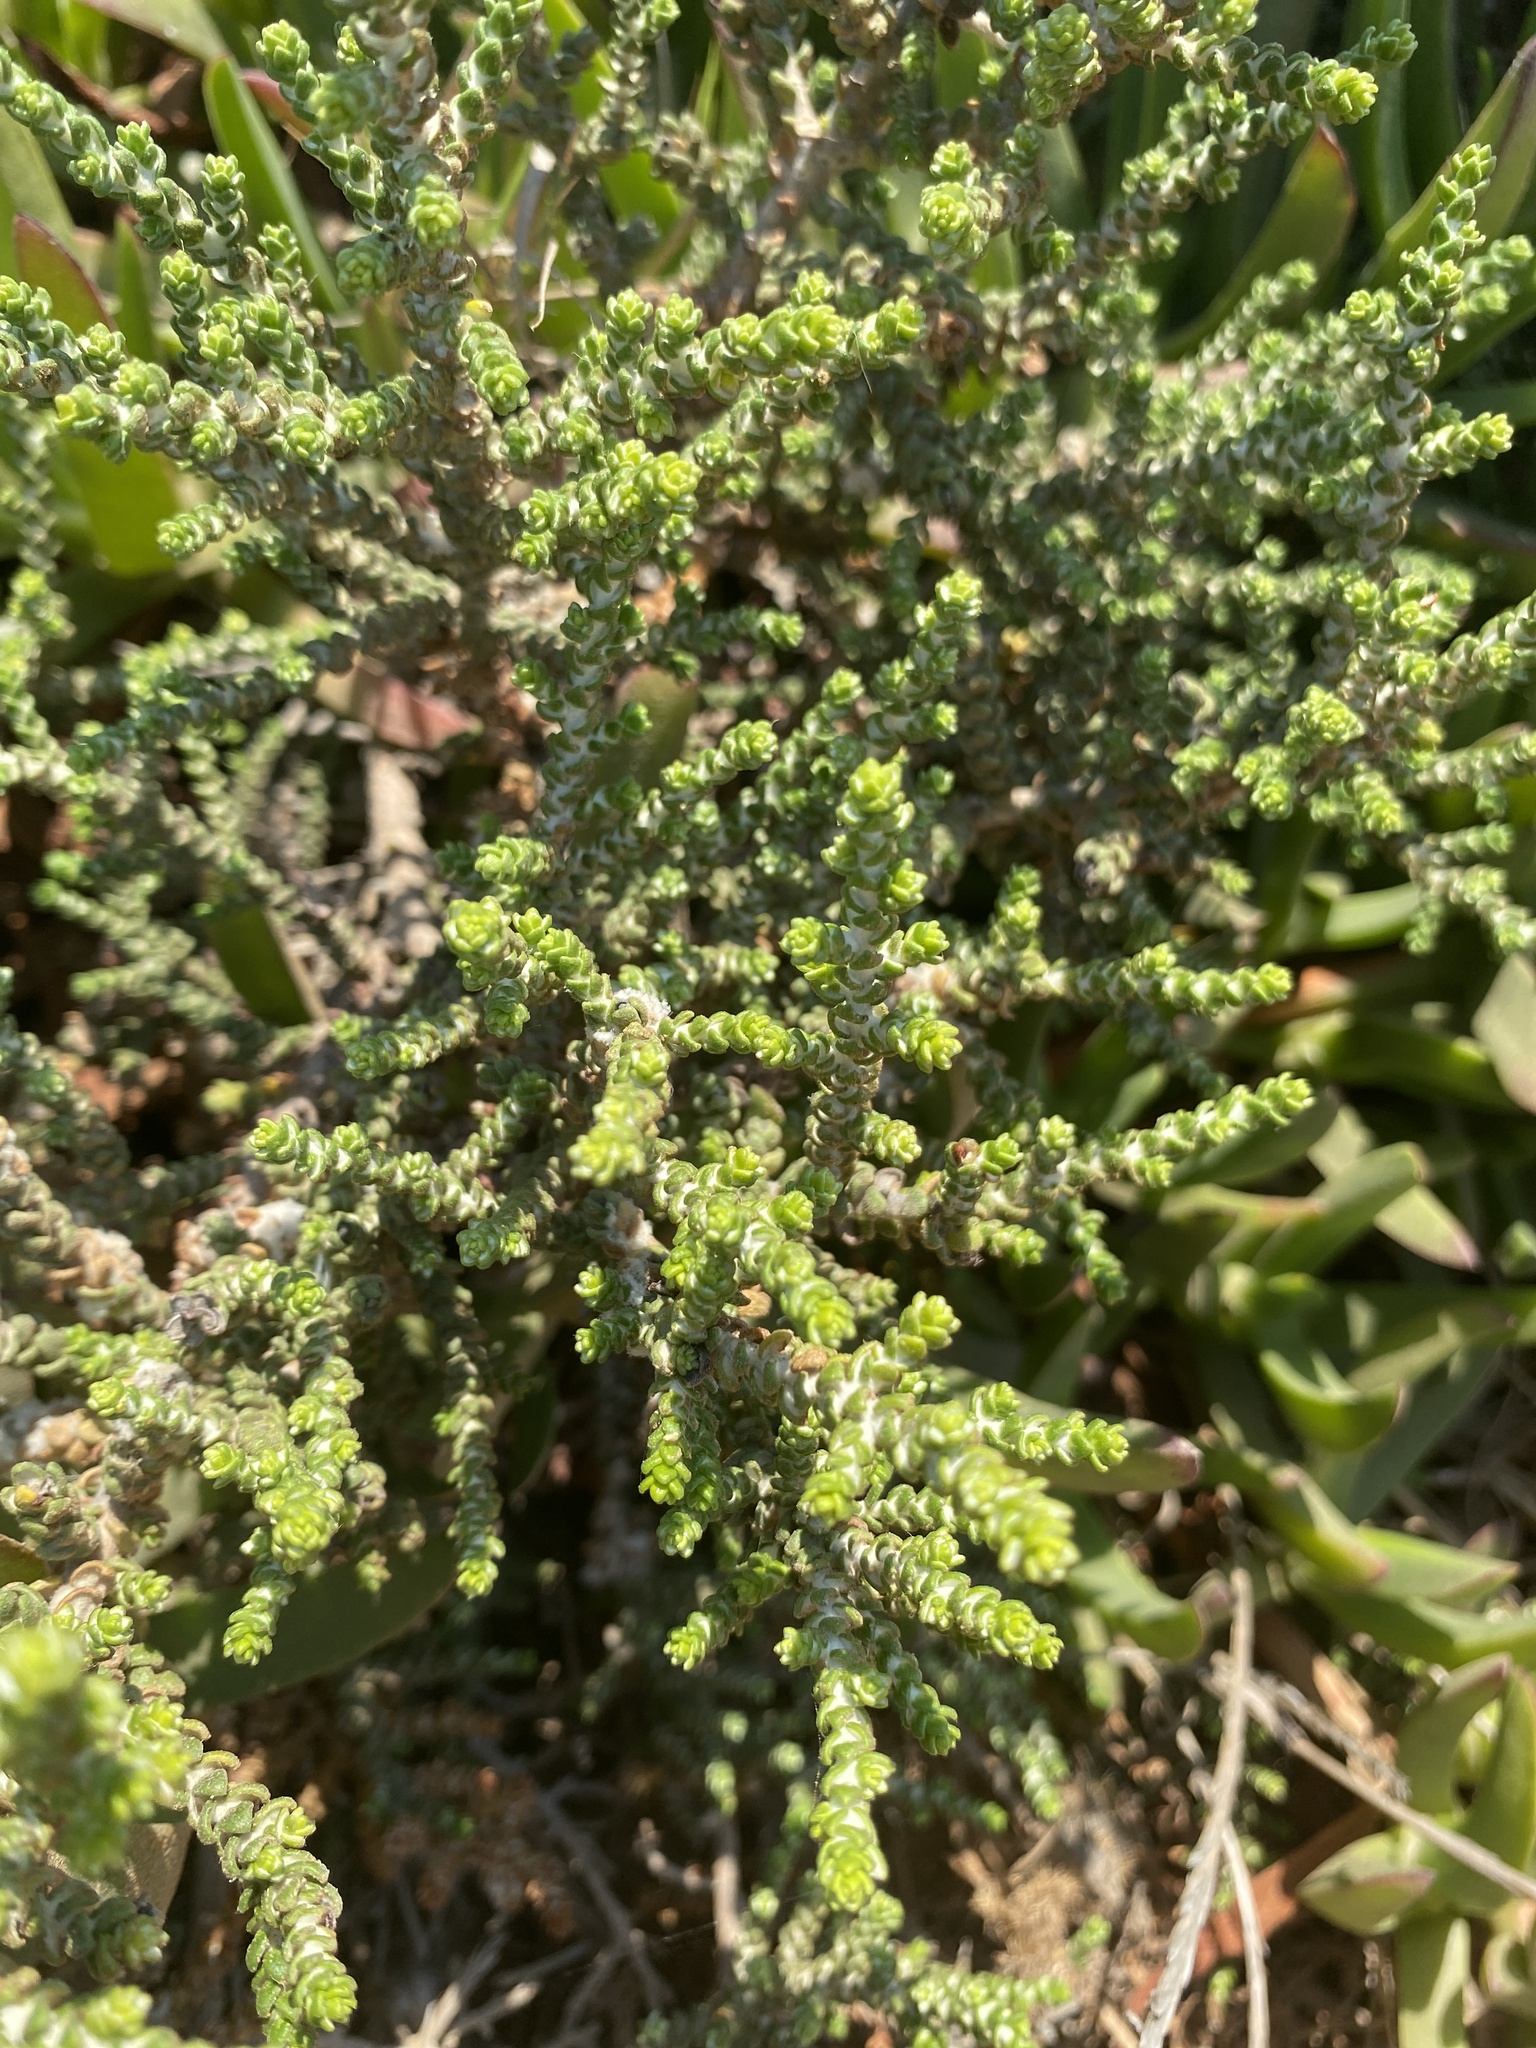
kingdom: Plantae
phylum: Tracheophyta
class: Magnoliopsida
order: Malvales
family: Thymelaeaceae
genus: Thymelaea
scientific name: Thymelaea hirsuta
